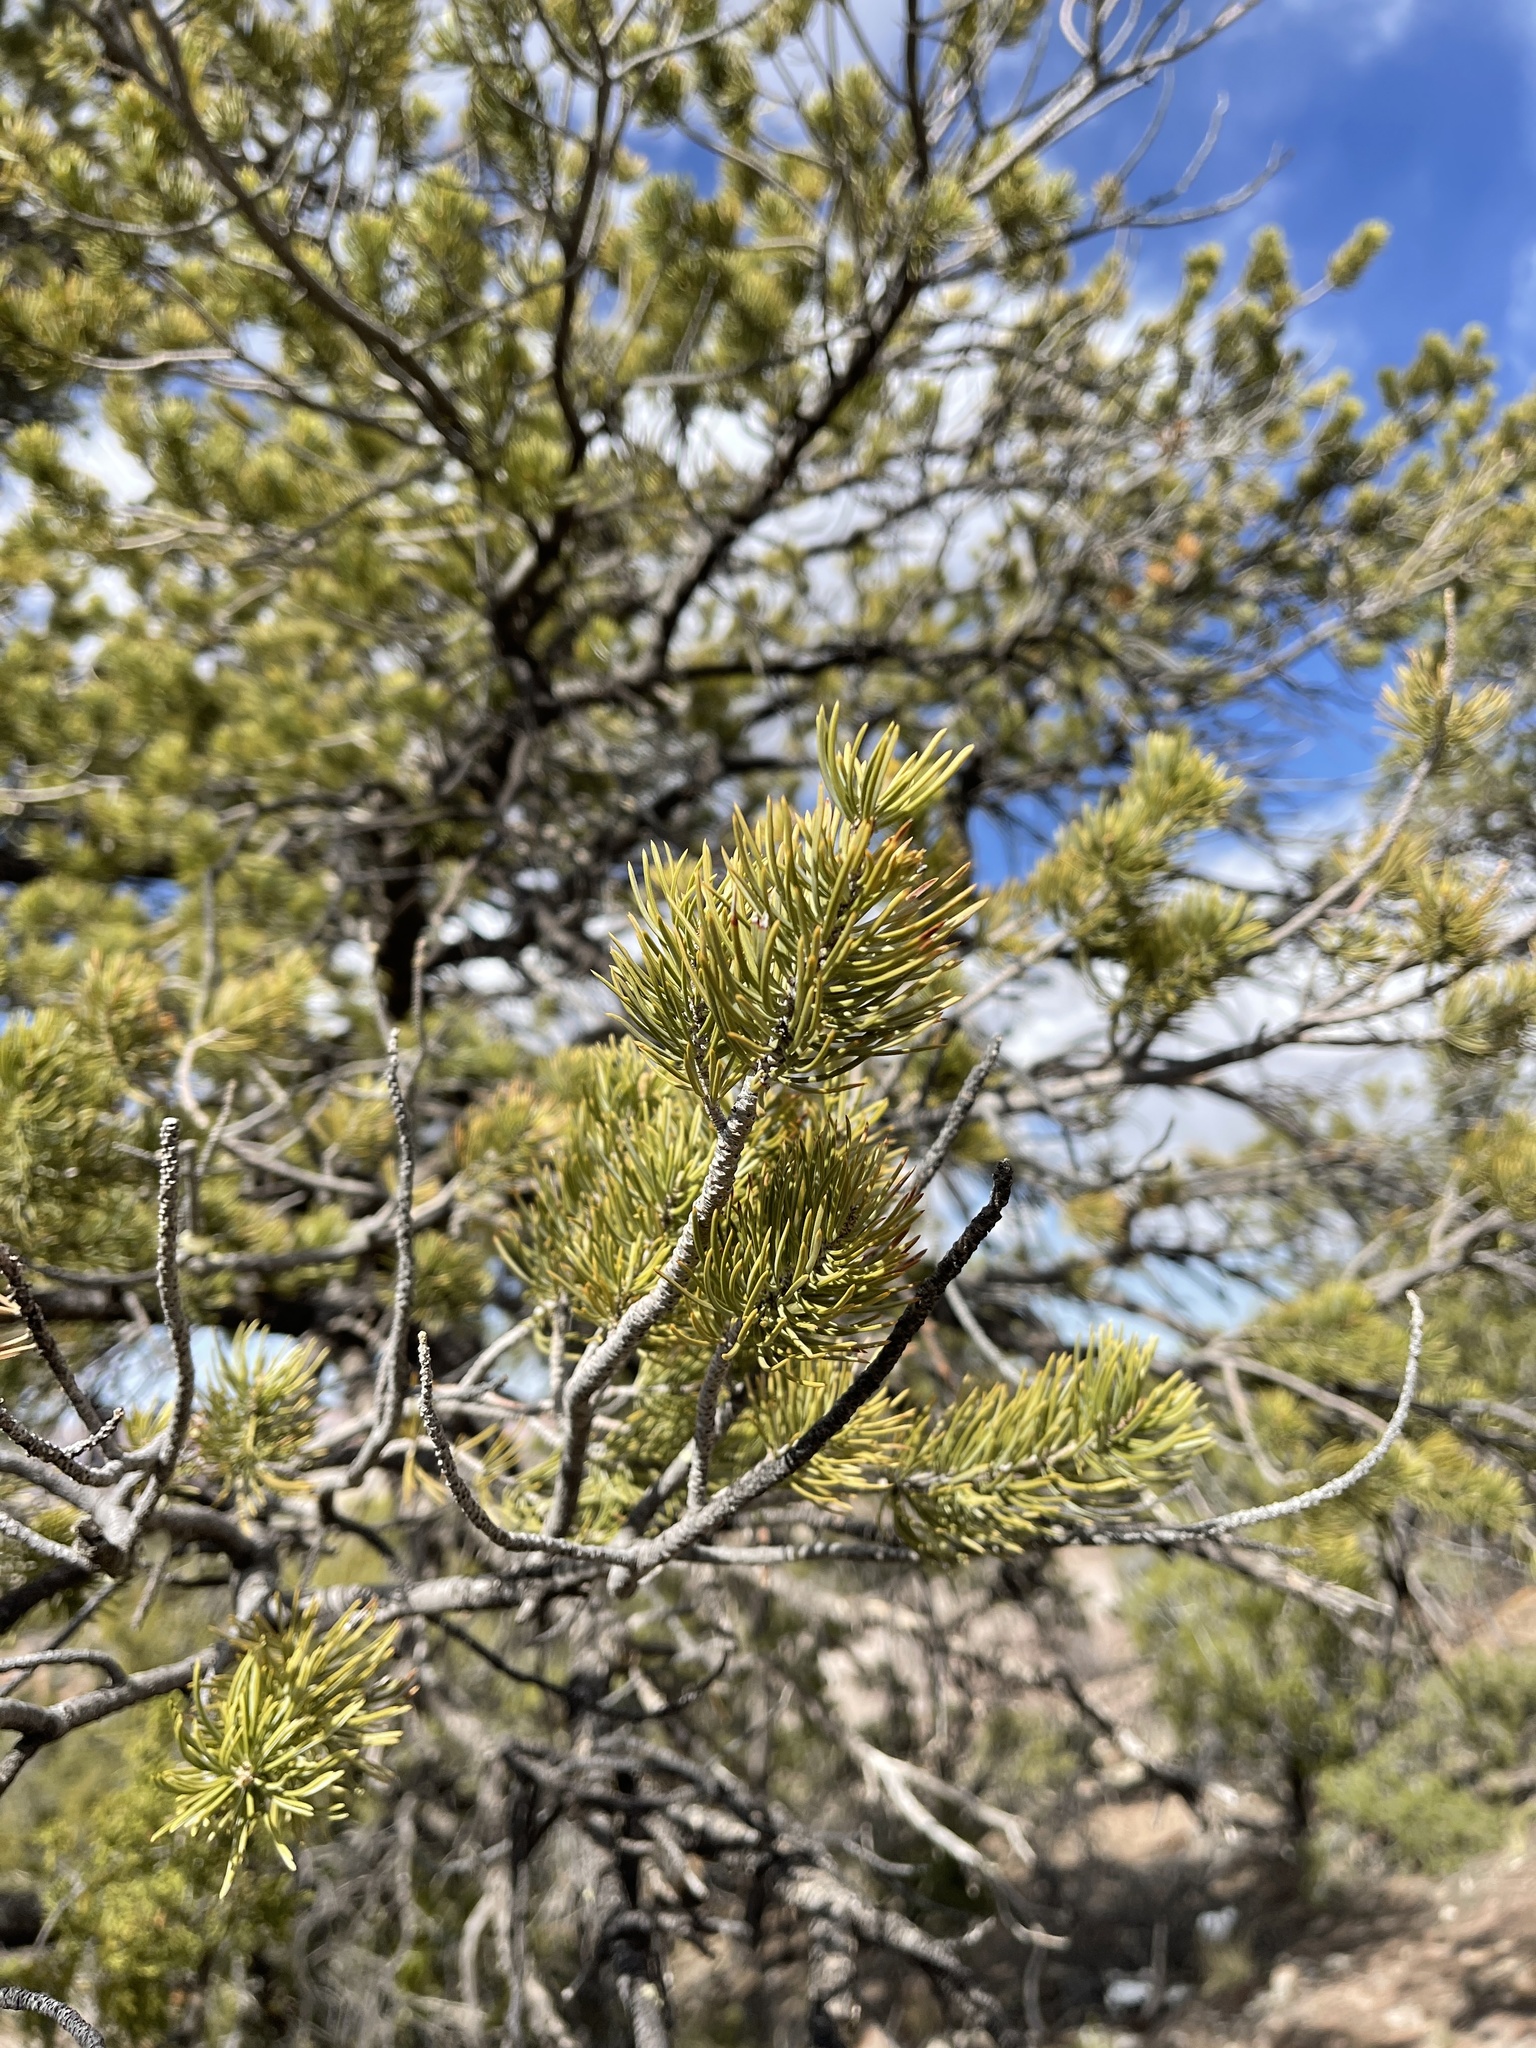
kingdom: Plantae
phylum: Tracheophyta
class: Pinopsida
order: Pinales
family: Pinaceae
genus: Pinus
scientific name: Pinus edulis
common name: Colorado pinyon
